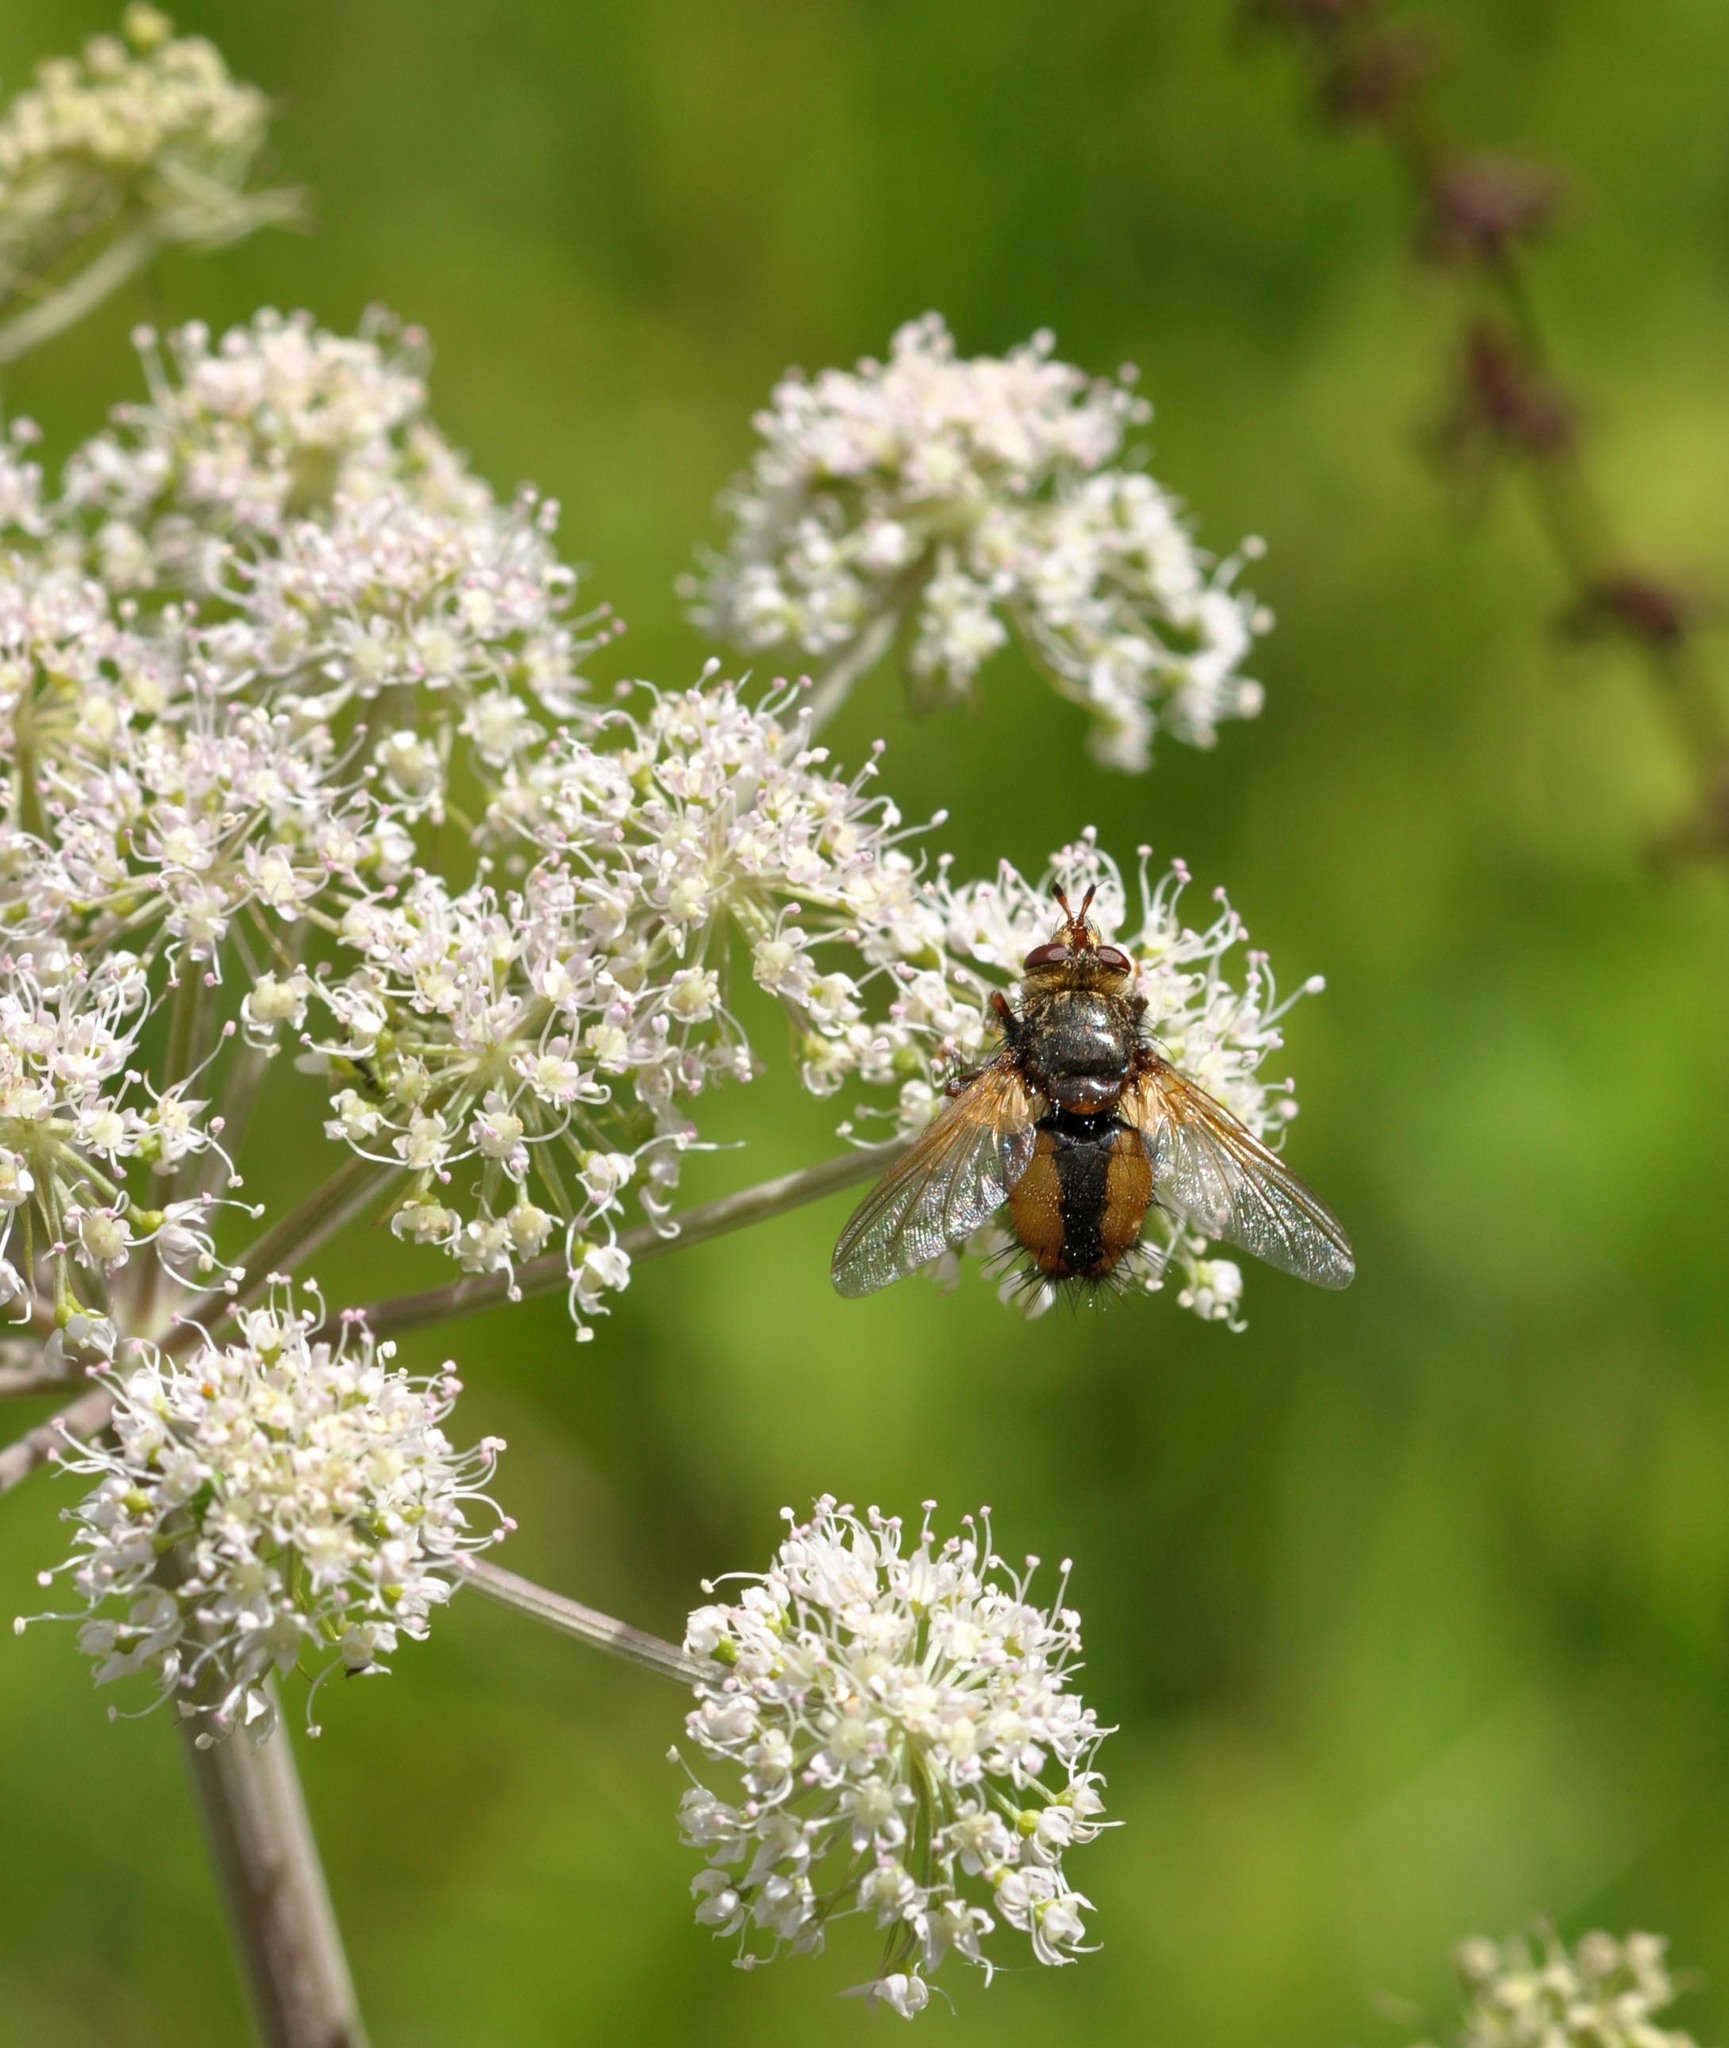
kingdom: Animalia
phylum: Arthropoda
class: Insecta
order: Diptera
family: Tachinidae
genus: Tachina
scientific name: Tachina fera
